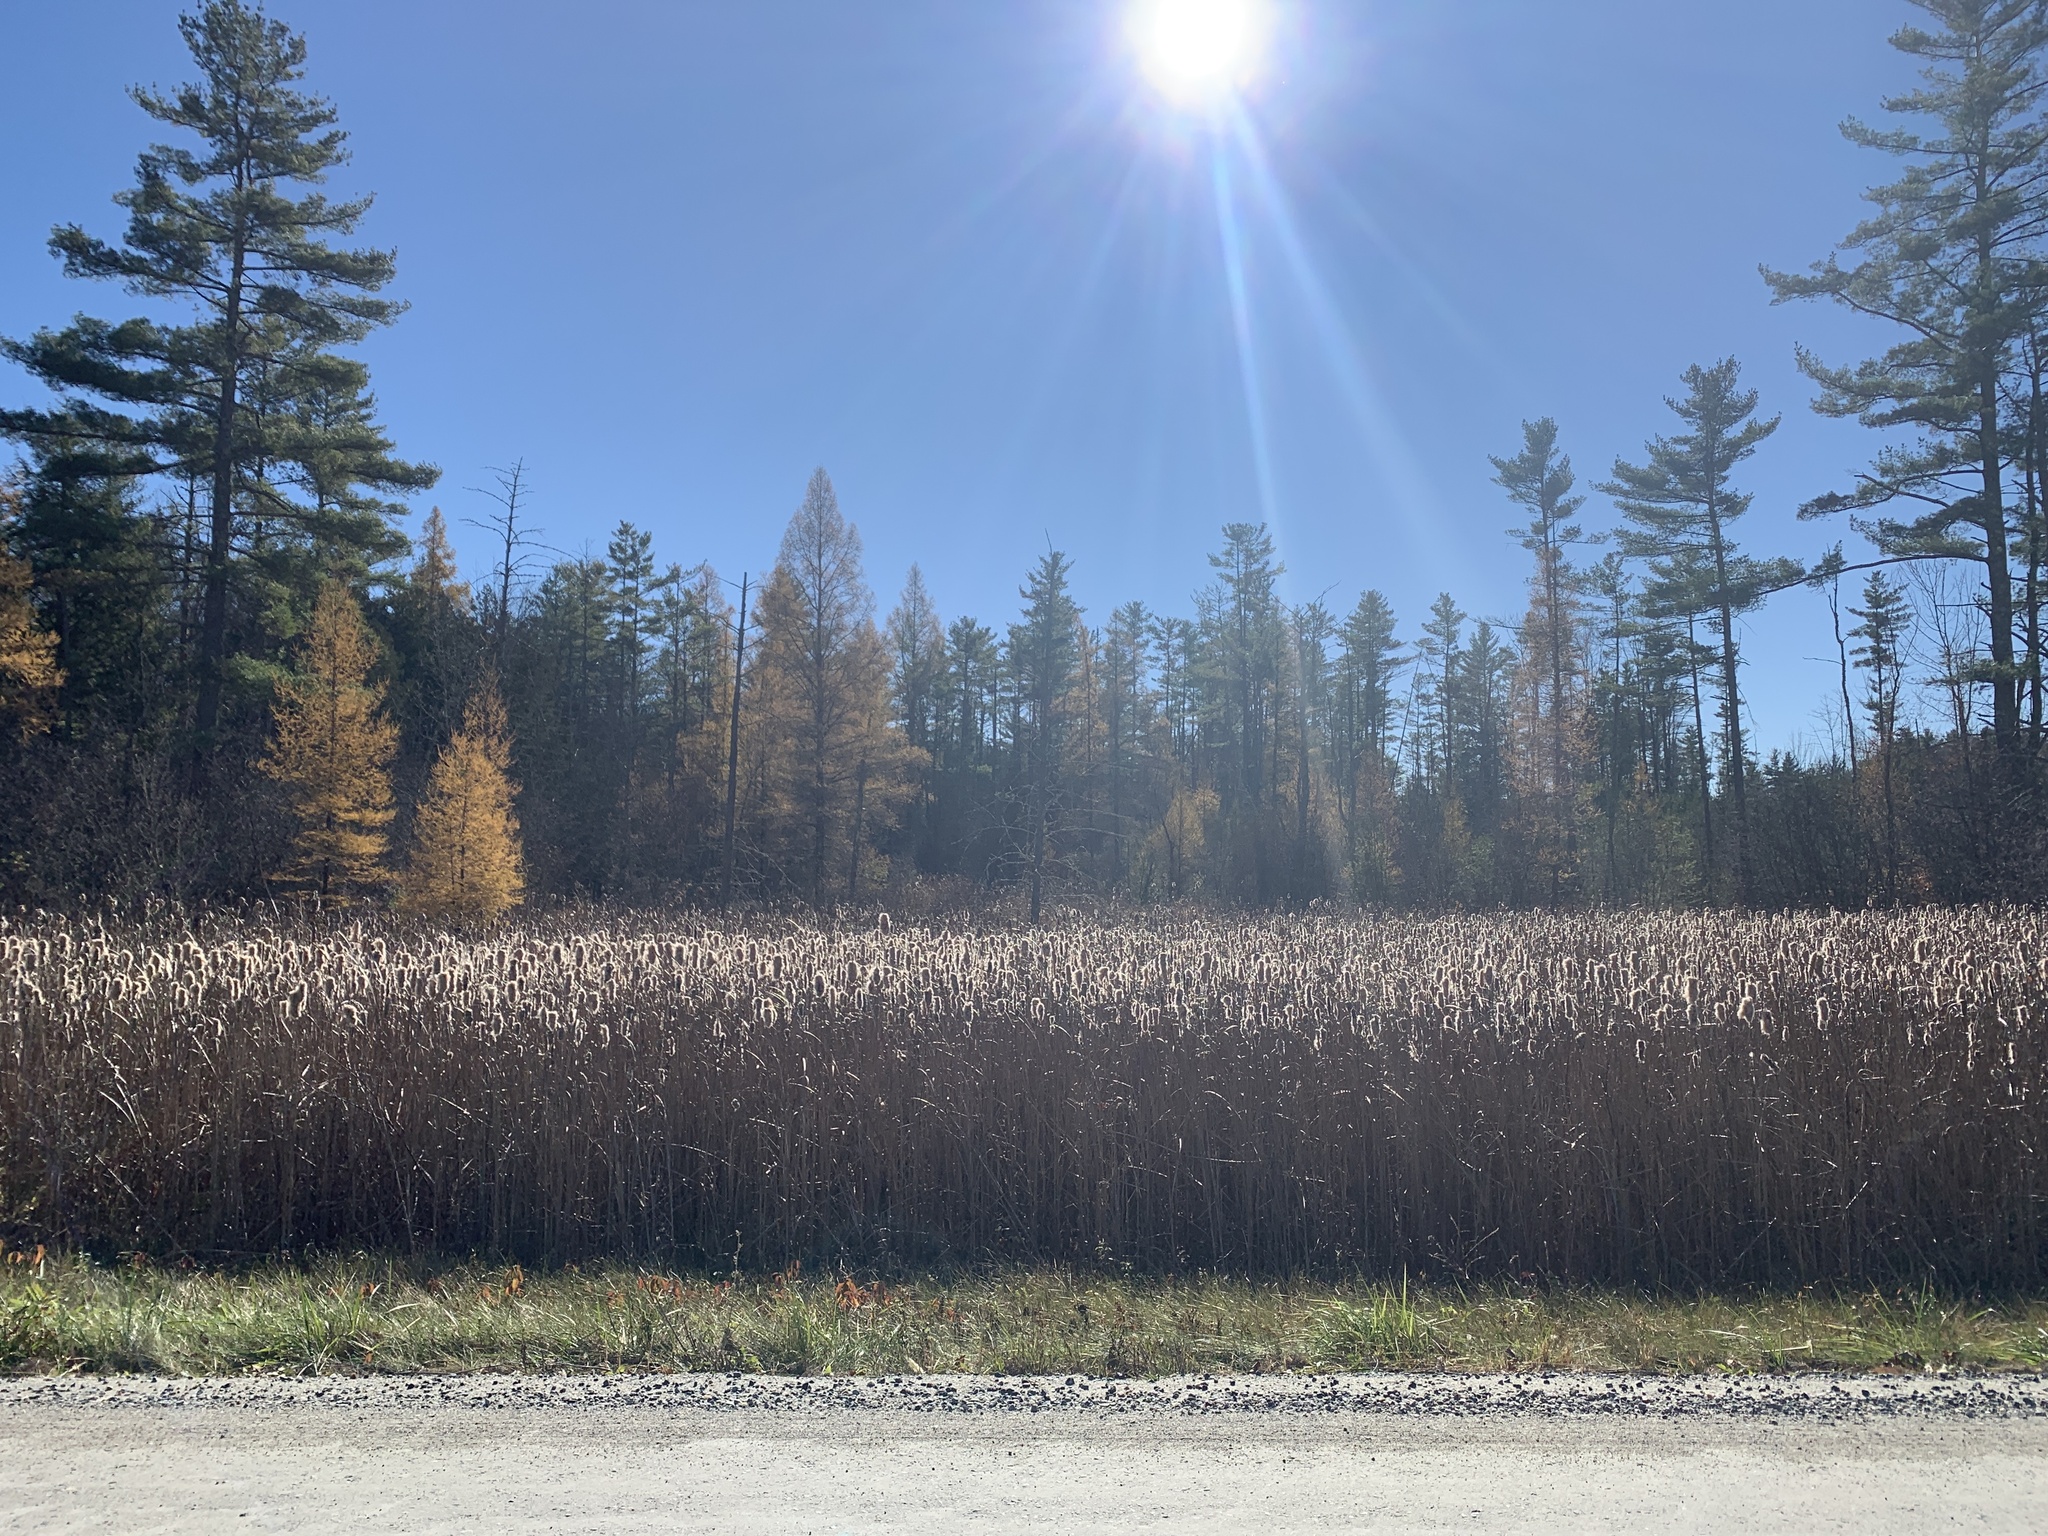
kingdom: Plantae
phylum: Tracheophyta
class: Pinopsida
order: Pinales
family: Pinaceae
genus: Larix
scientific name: Larix laricina
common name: American larch
